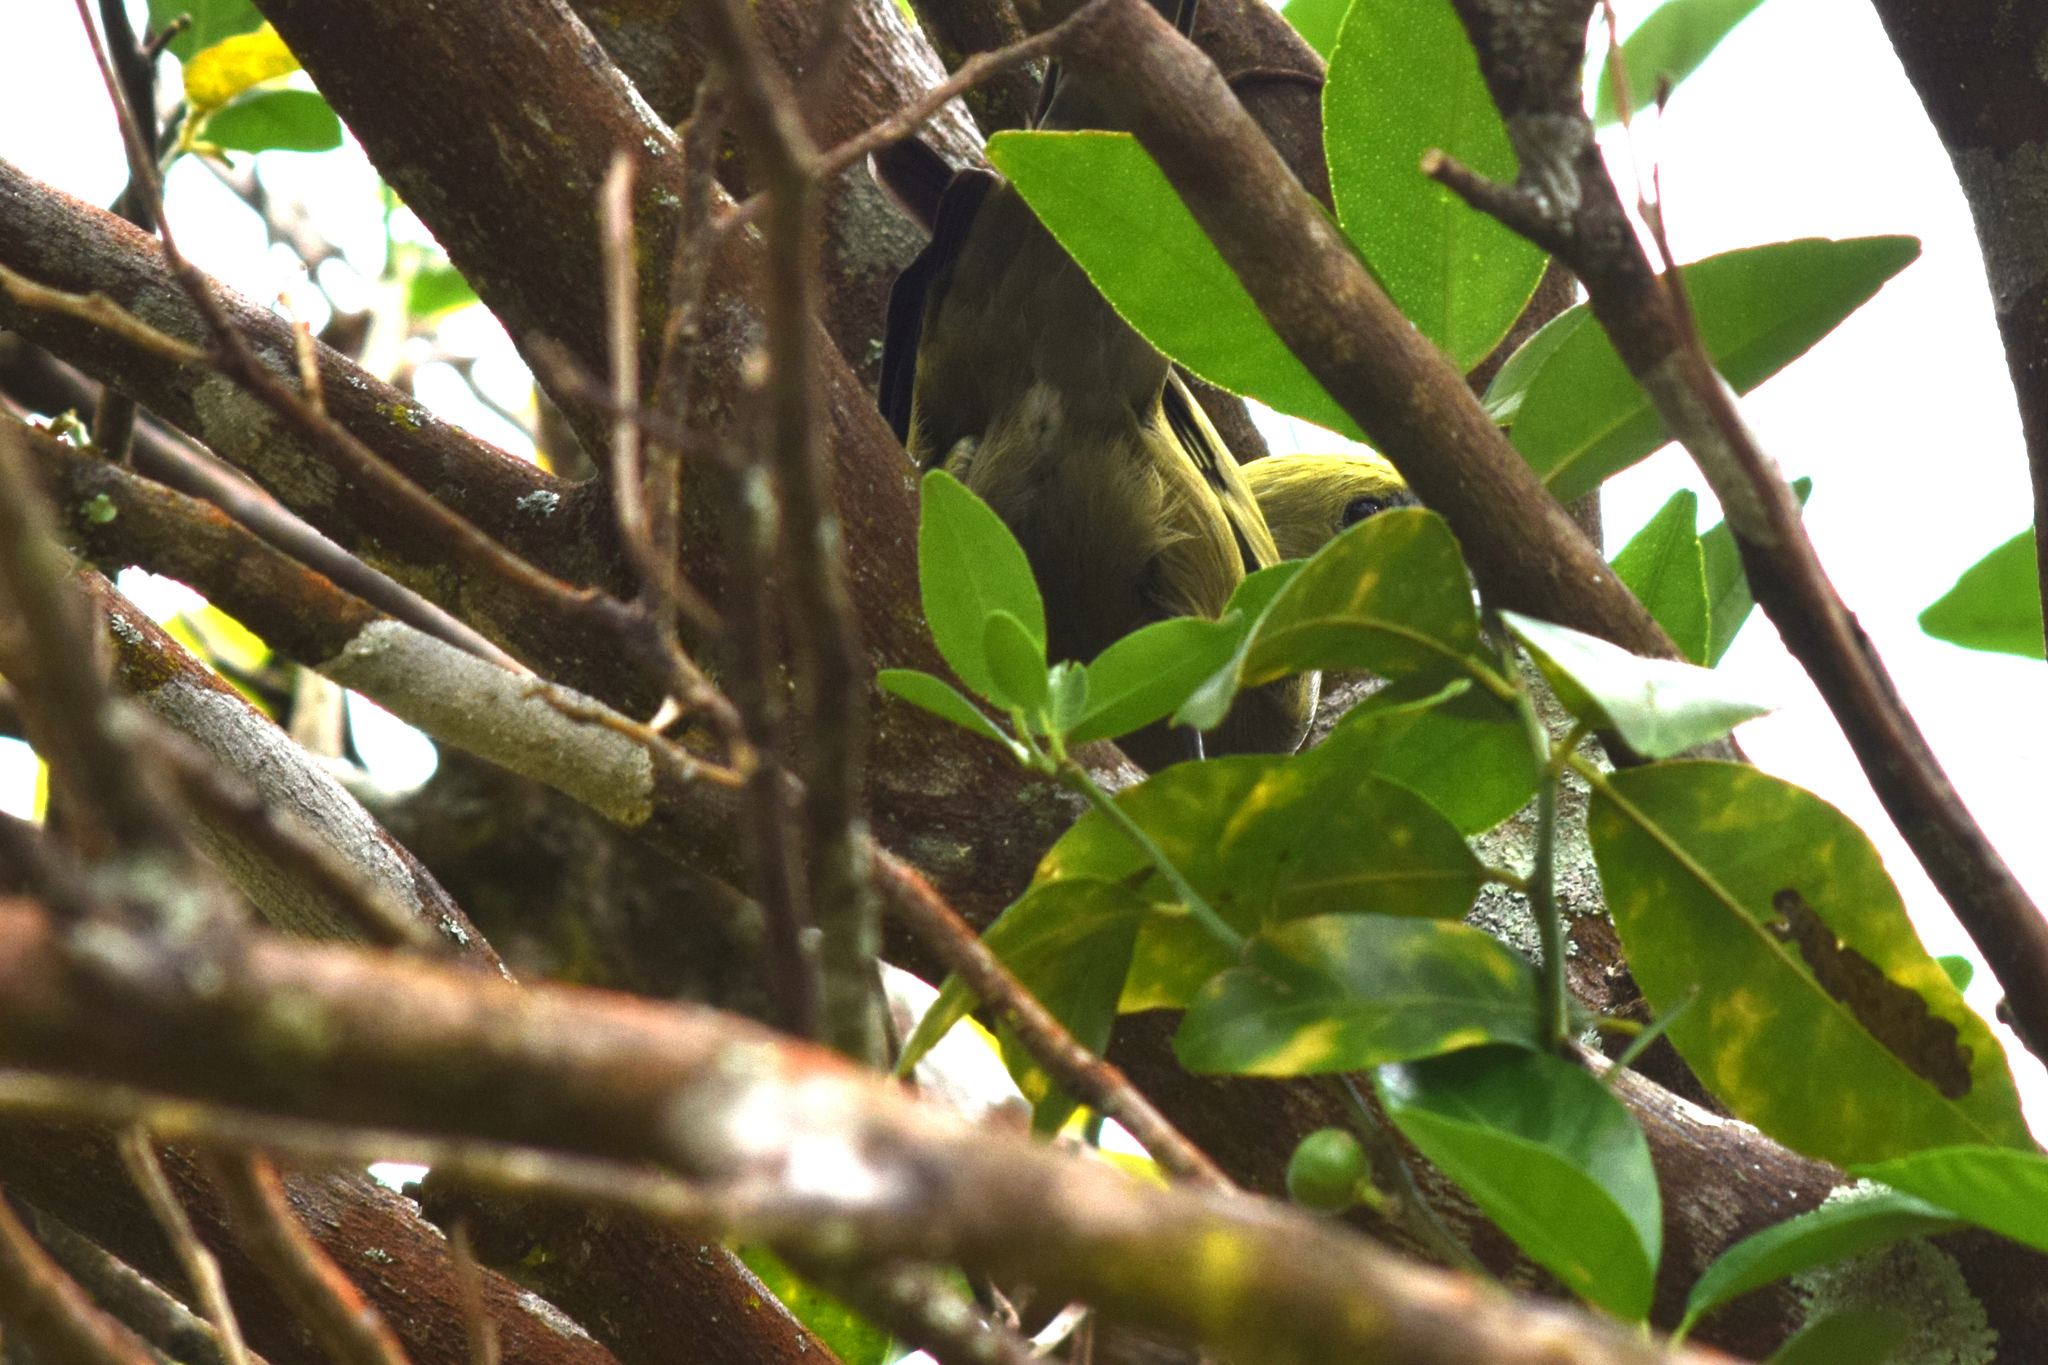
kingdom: Animalia
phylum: Chordata
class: Aves
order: Passeriformes
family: Thraupidae
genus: Thraupis
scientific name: Thraupis palmarum
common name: Palm tanager
